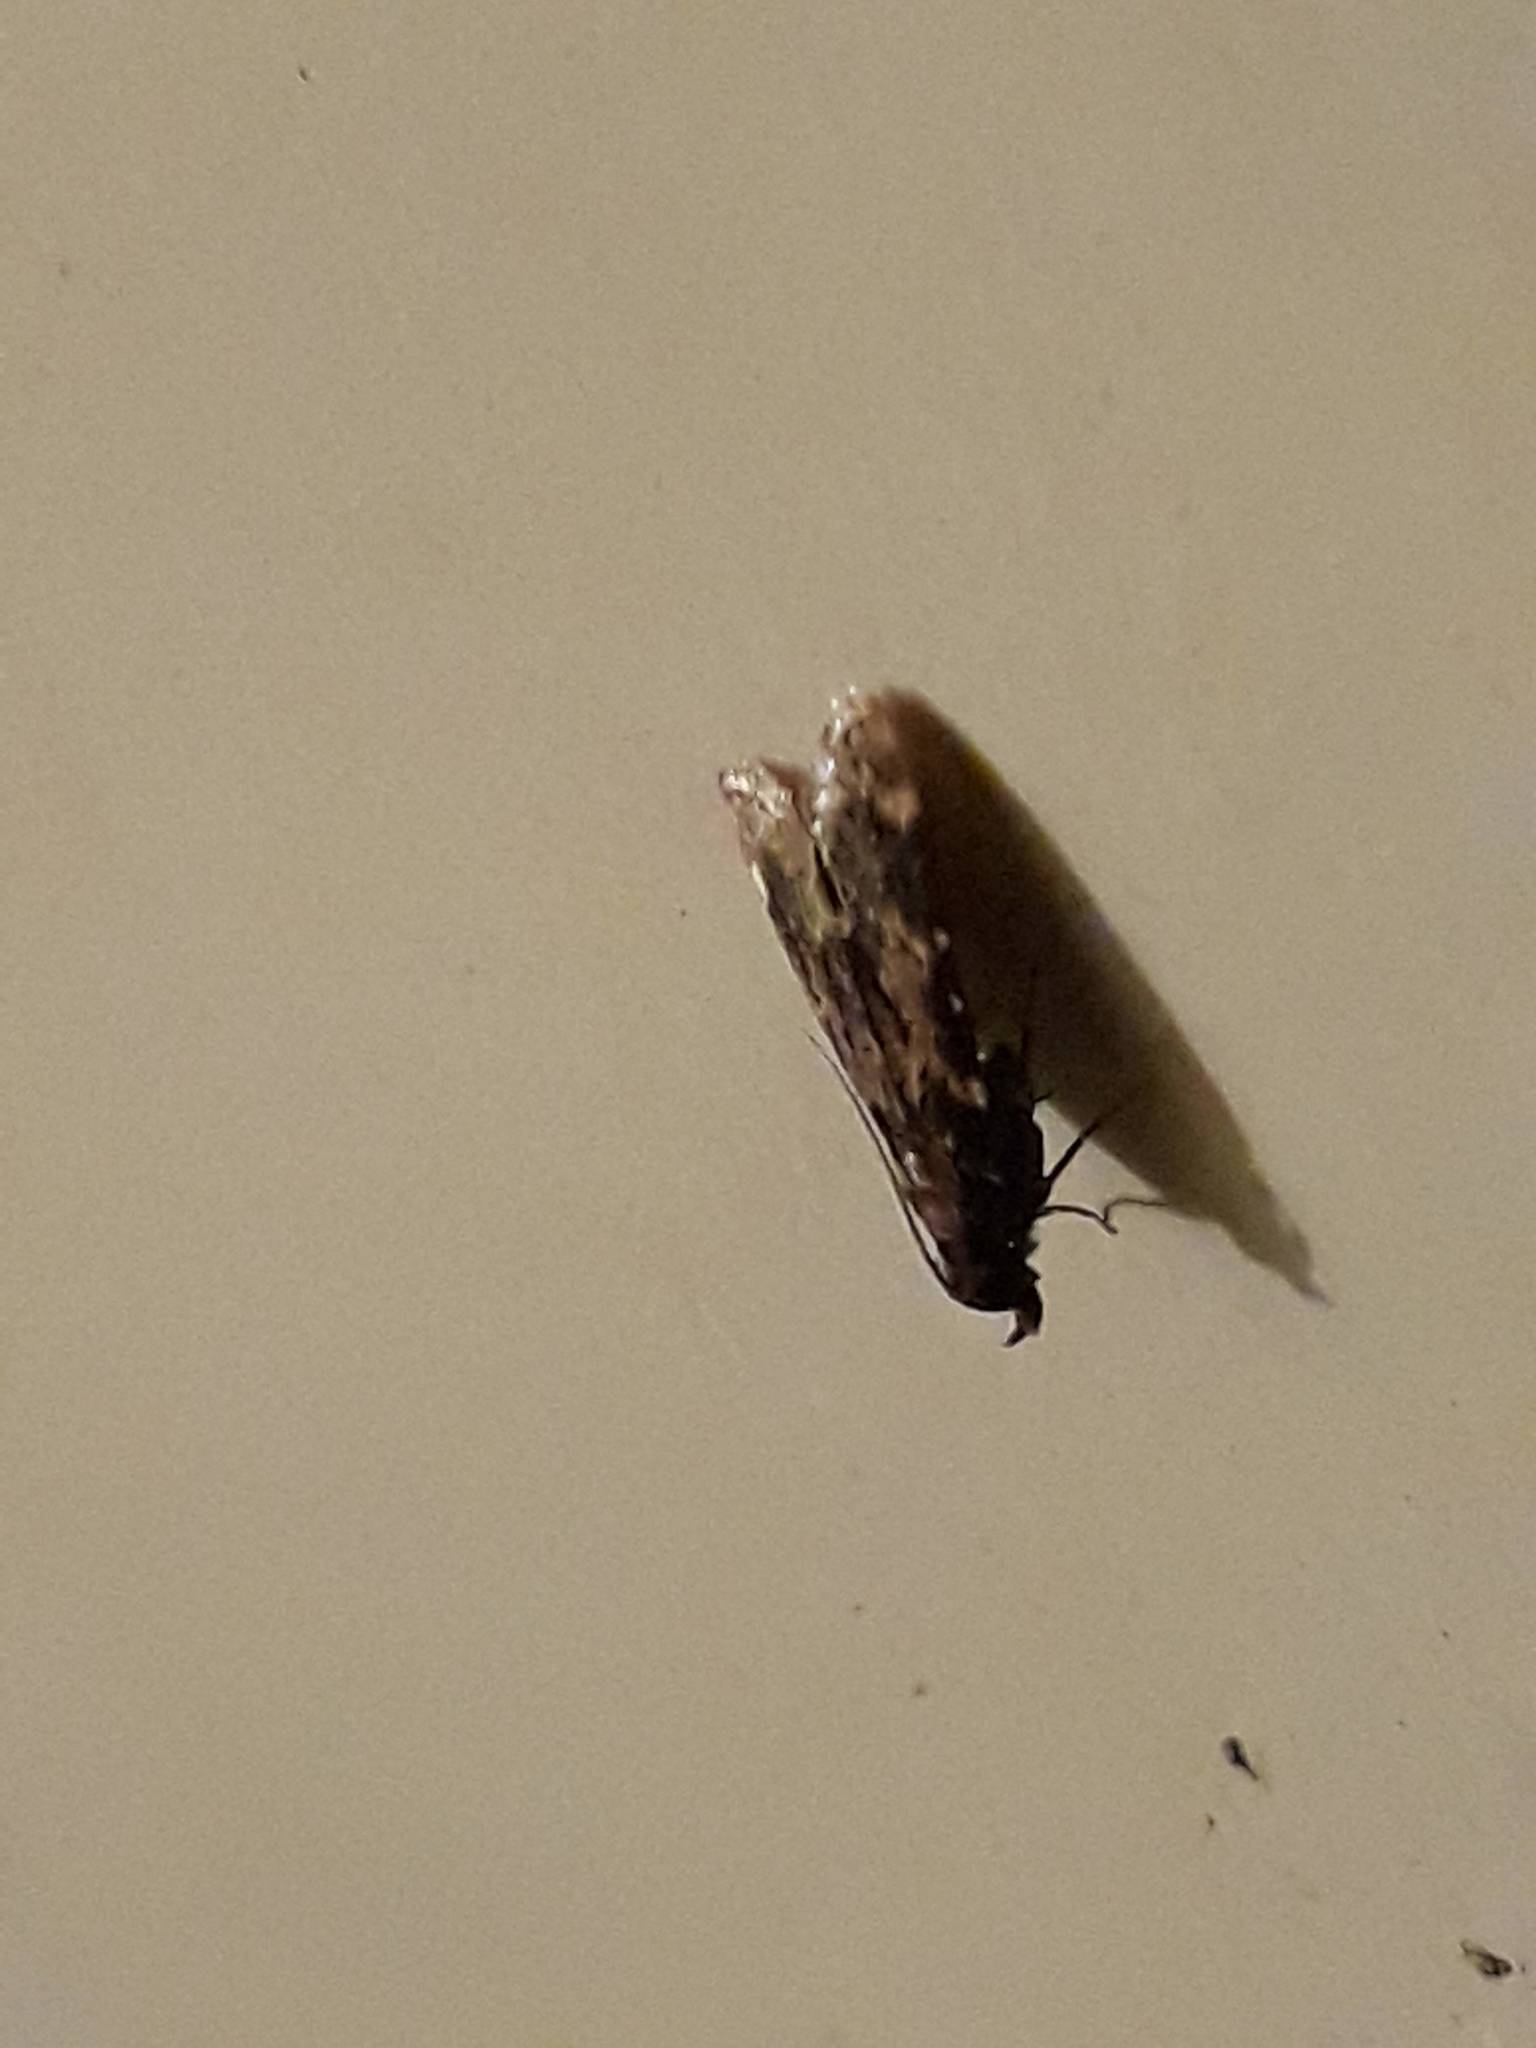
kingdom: Animalia
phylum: Arthropoda
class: Insecta
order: Lepidoptera
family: Pyralidae
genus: Aglossa
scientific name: Aglossa caprealis
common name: Small tabby
